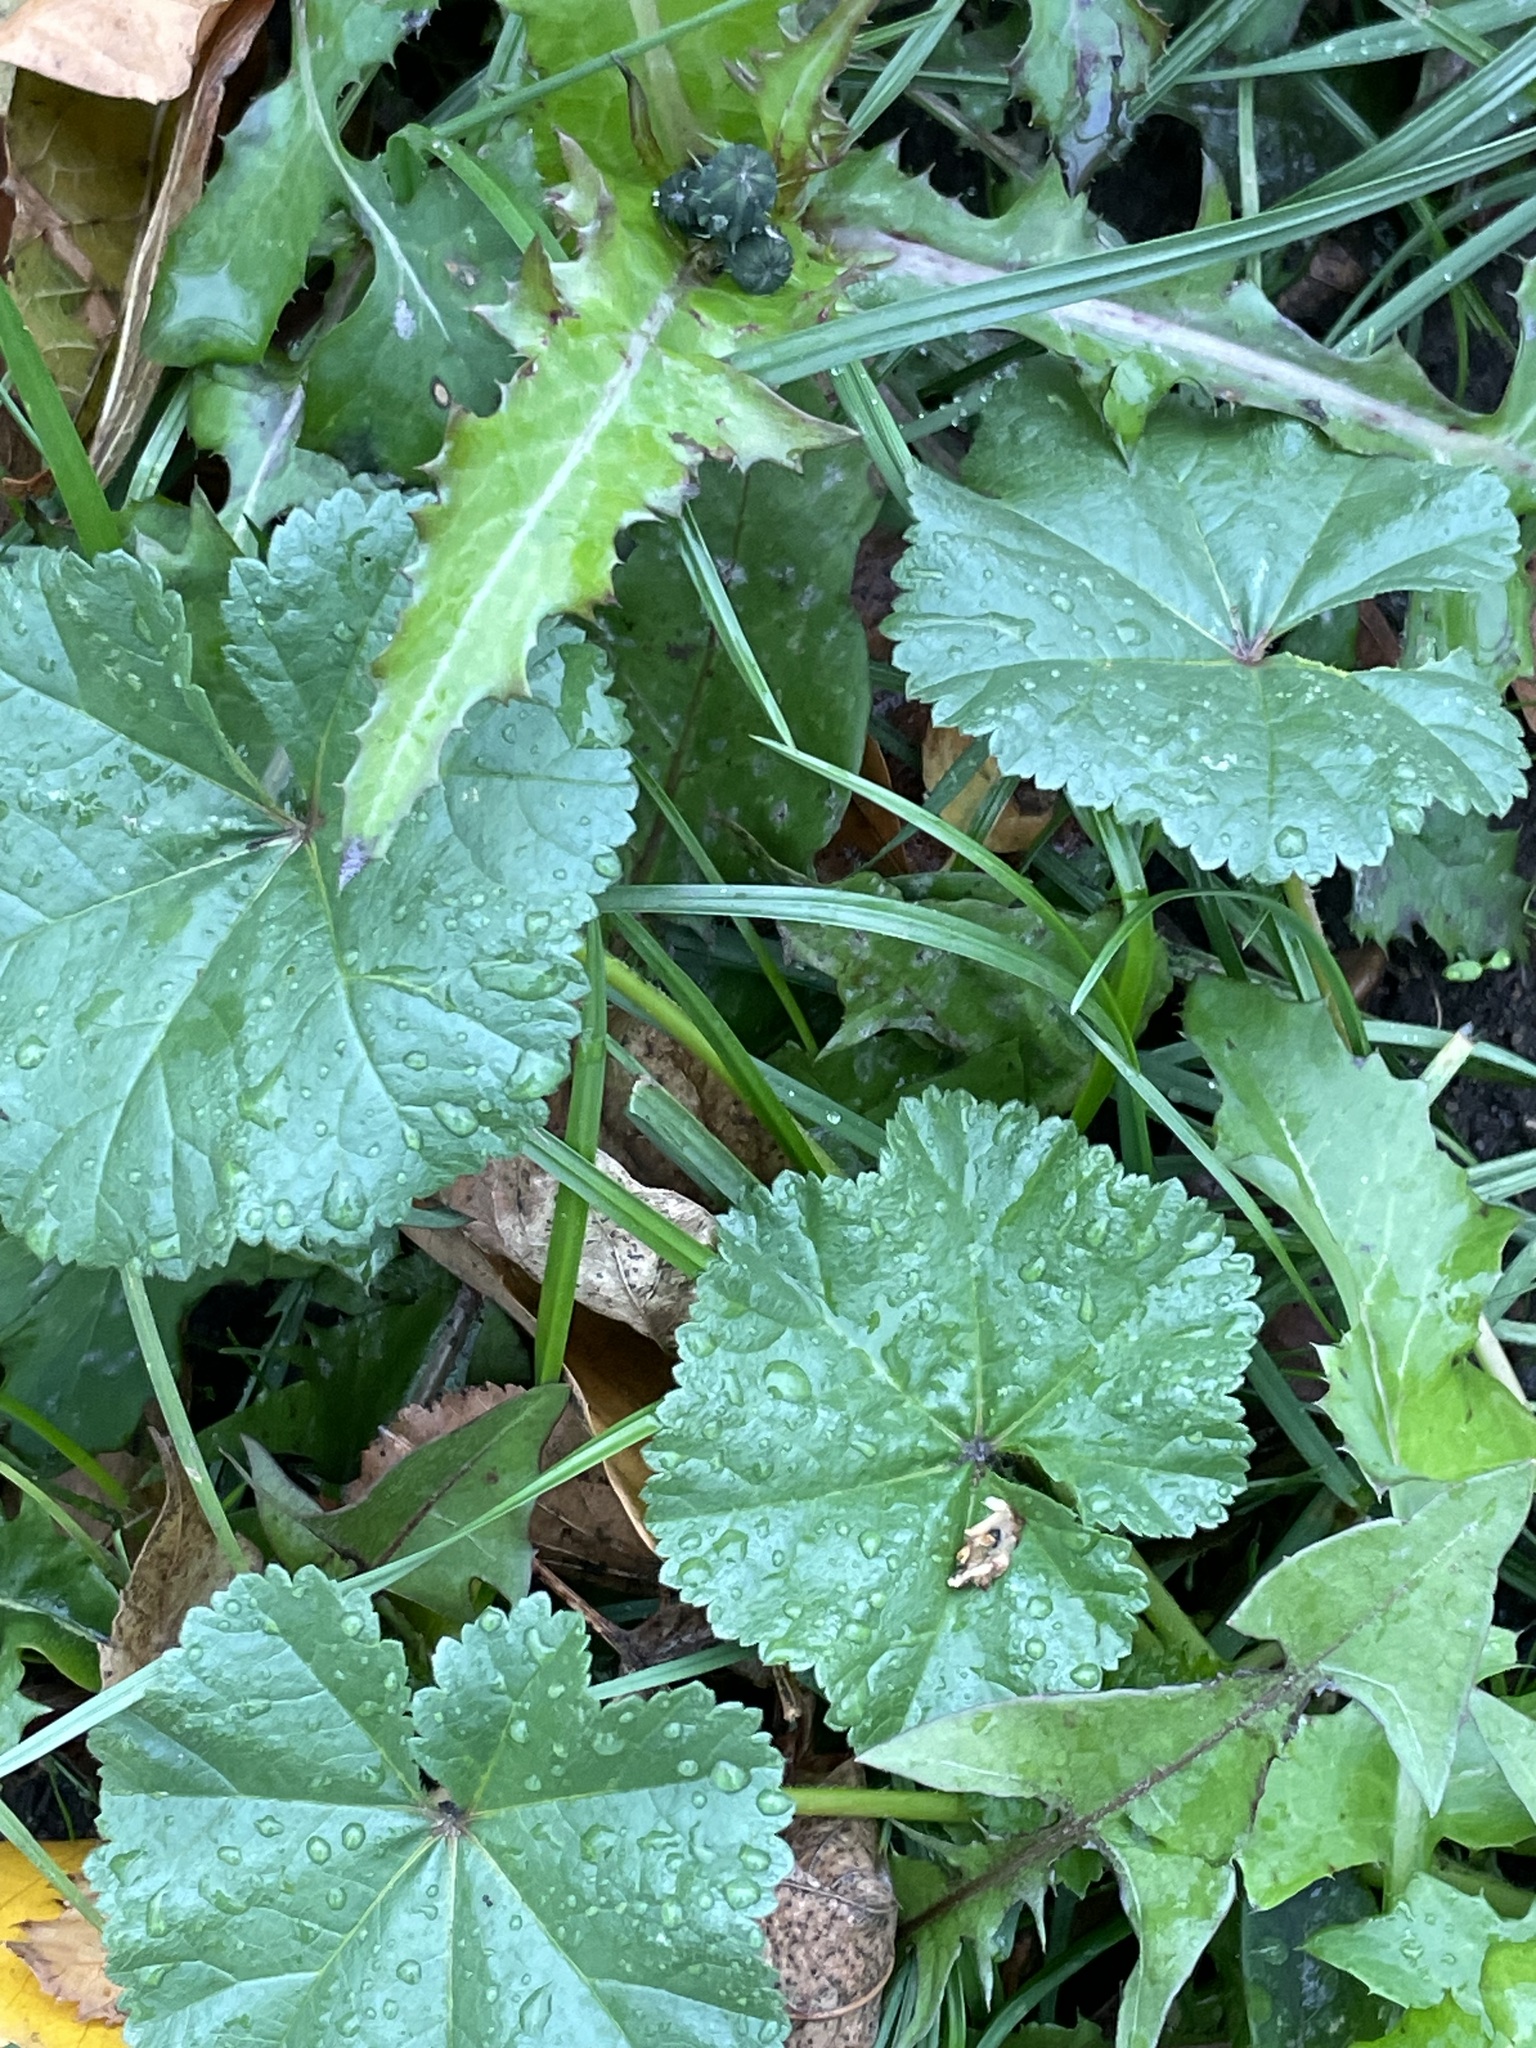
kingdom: Plantae
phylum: Tracheophyta
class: Magnoliopsida
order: Malvales
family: Malvaceae
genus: Malva
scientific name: Malva pusilla
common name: Small mallow
